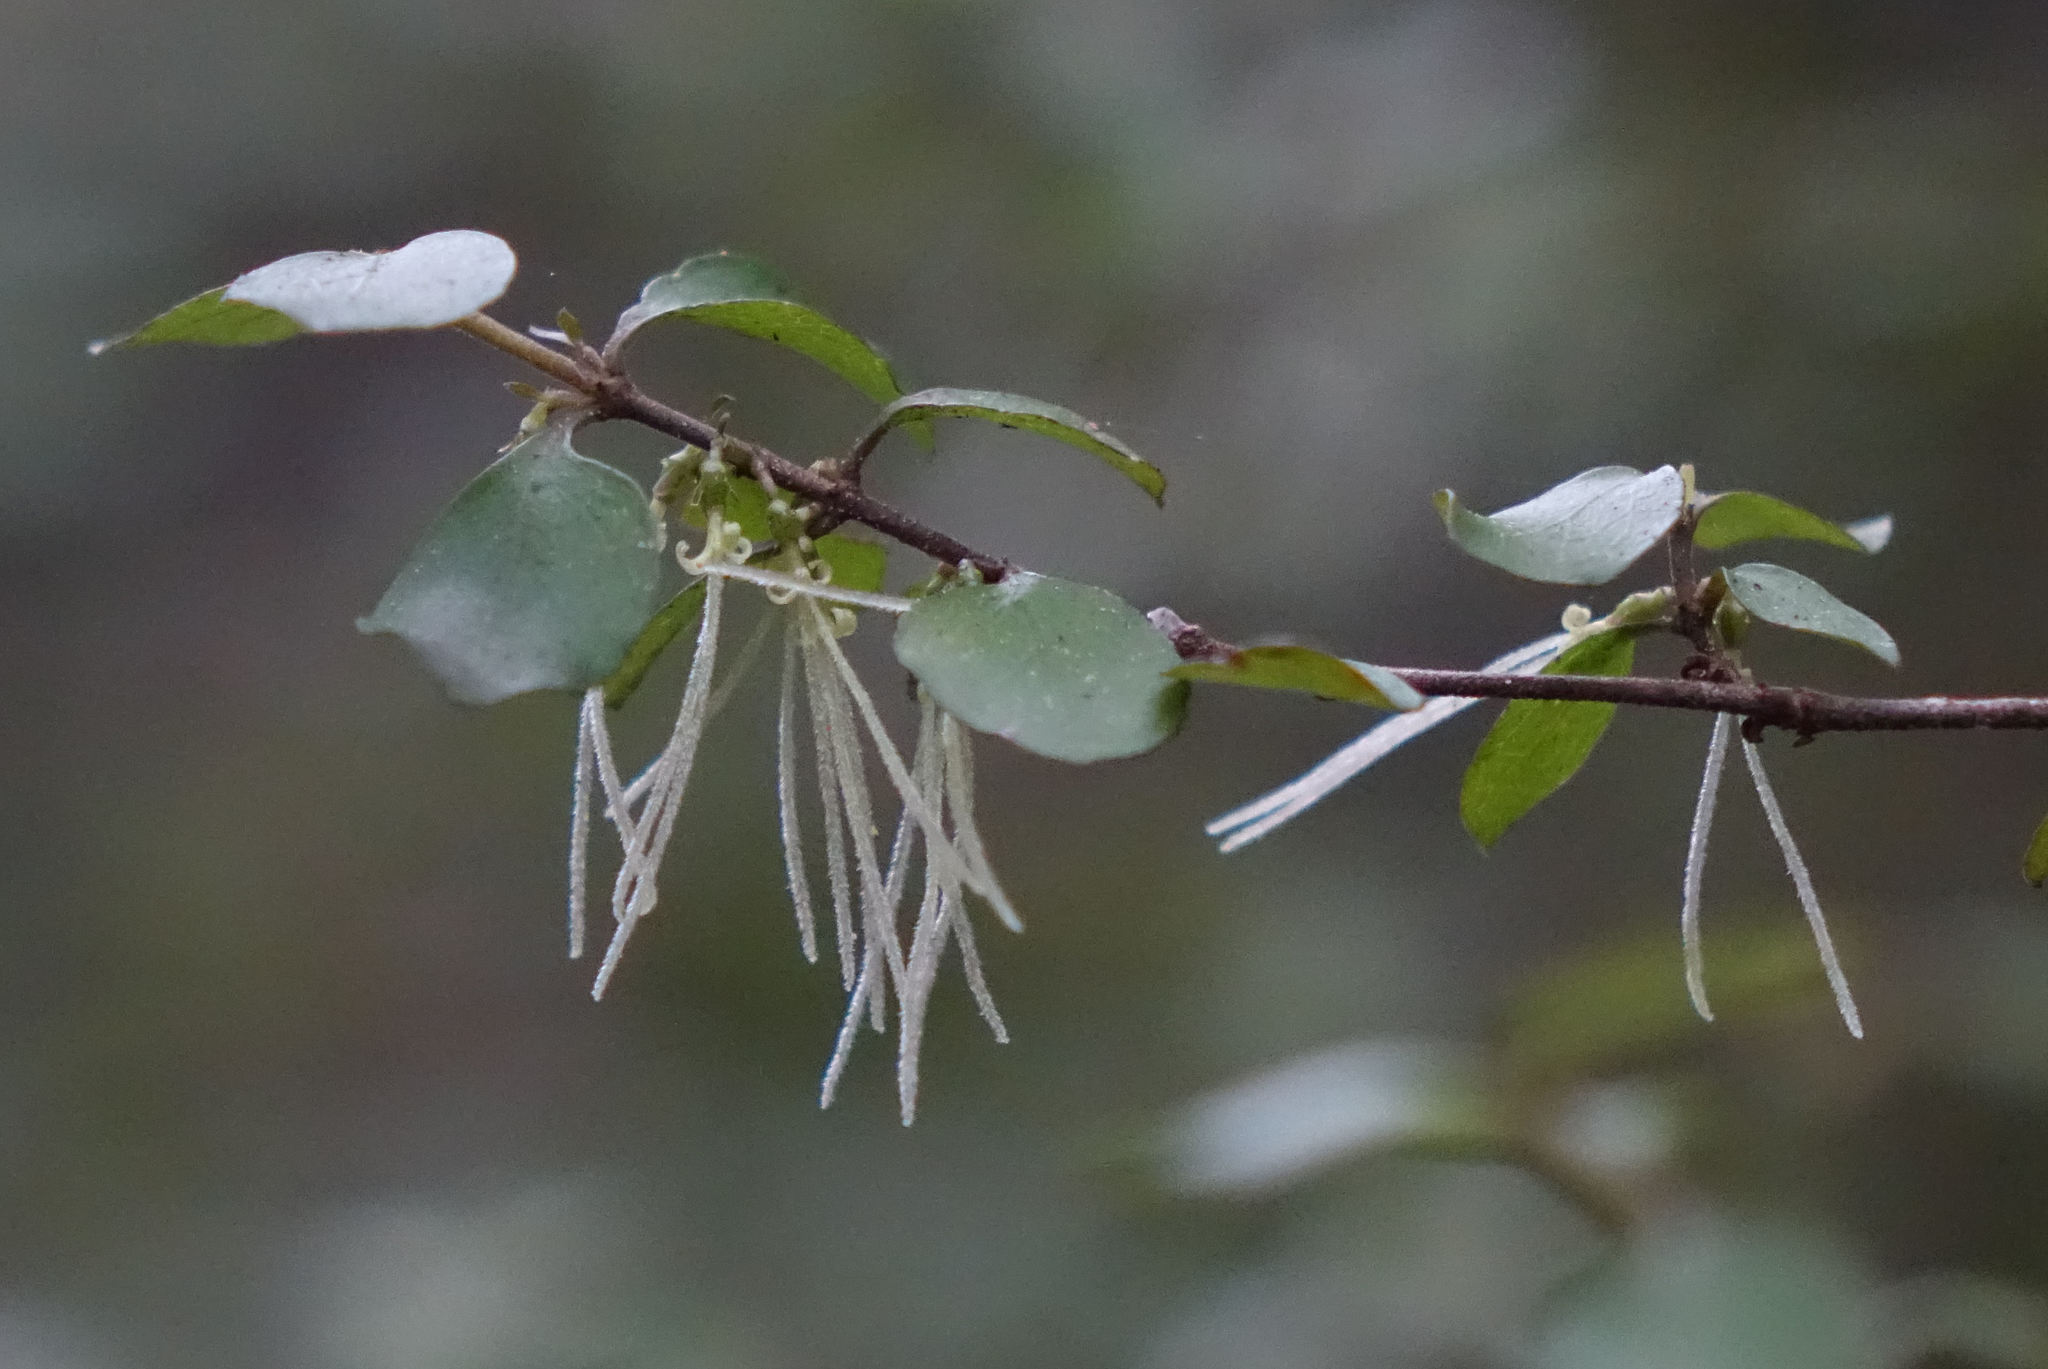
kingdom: Plantae
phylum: Tracheophyta
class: Magnoliopsida
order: Gentianales
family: Rubiaceae
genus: Coprosma
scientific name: Coprosma rhamnoides
